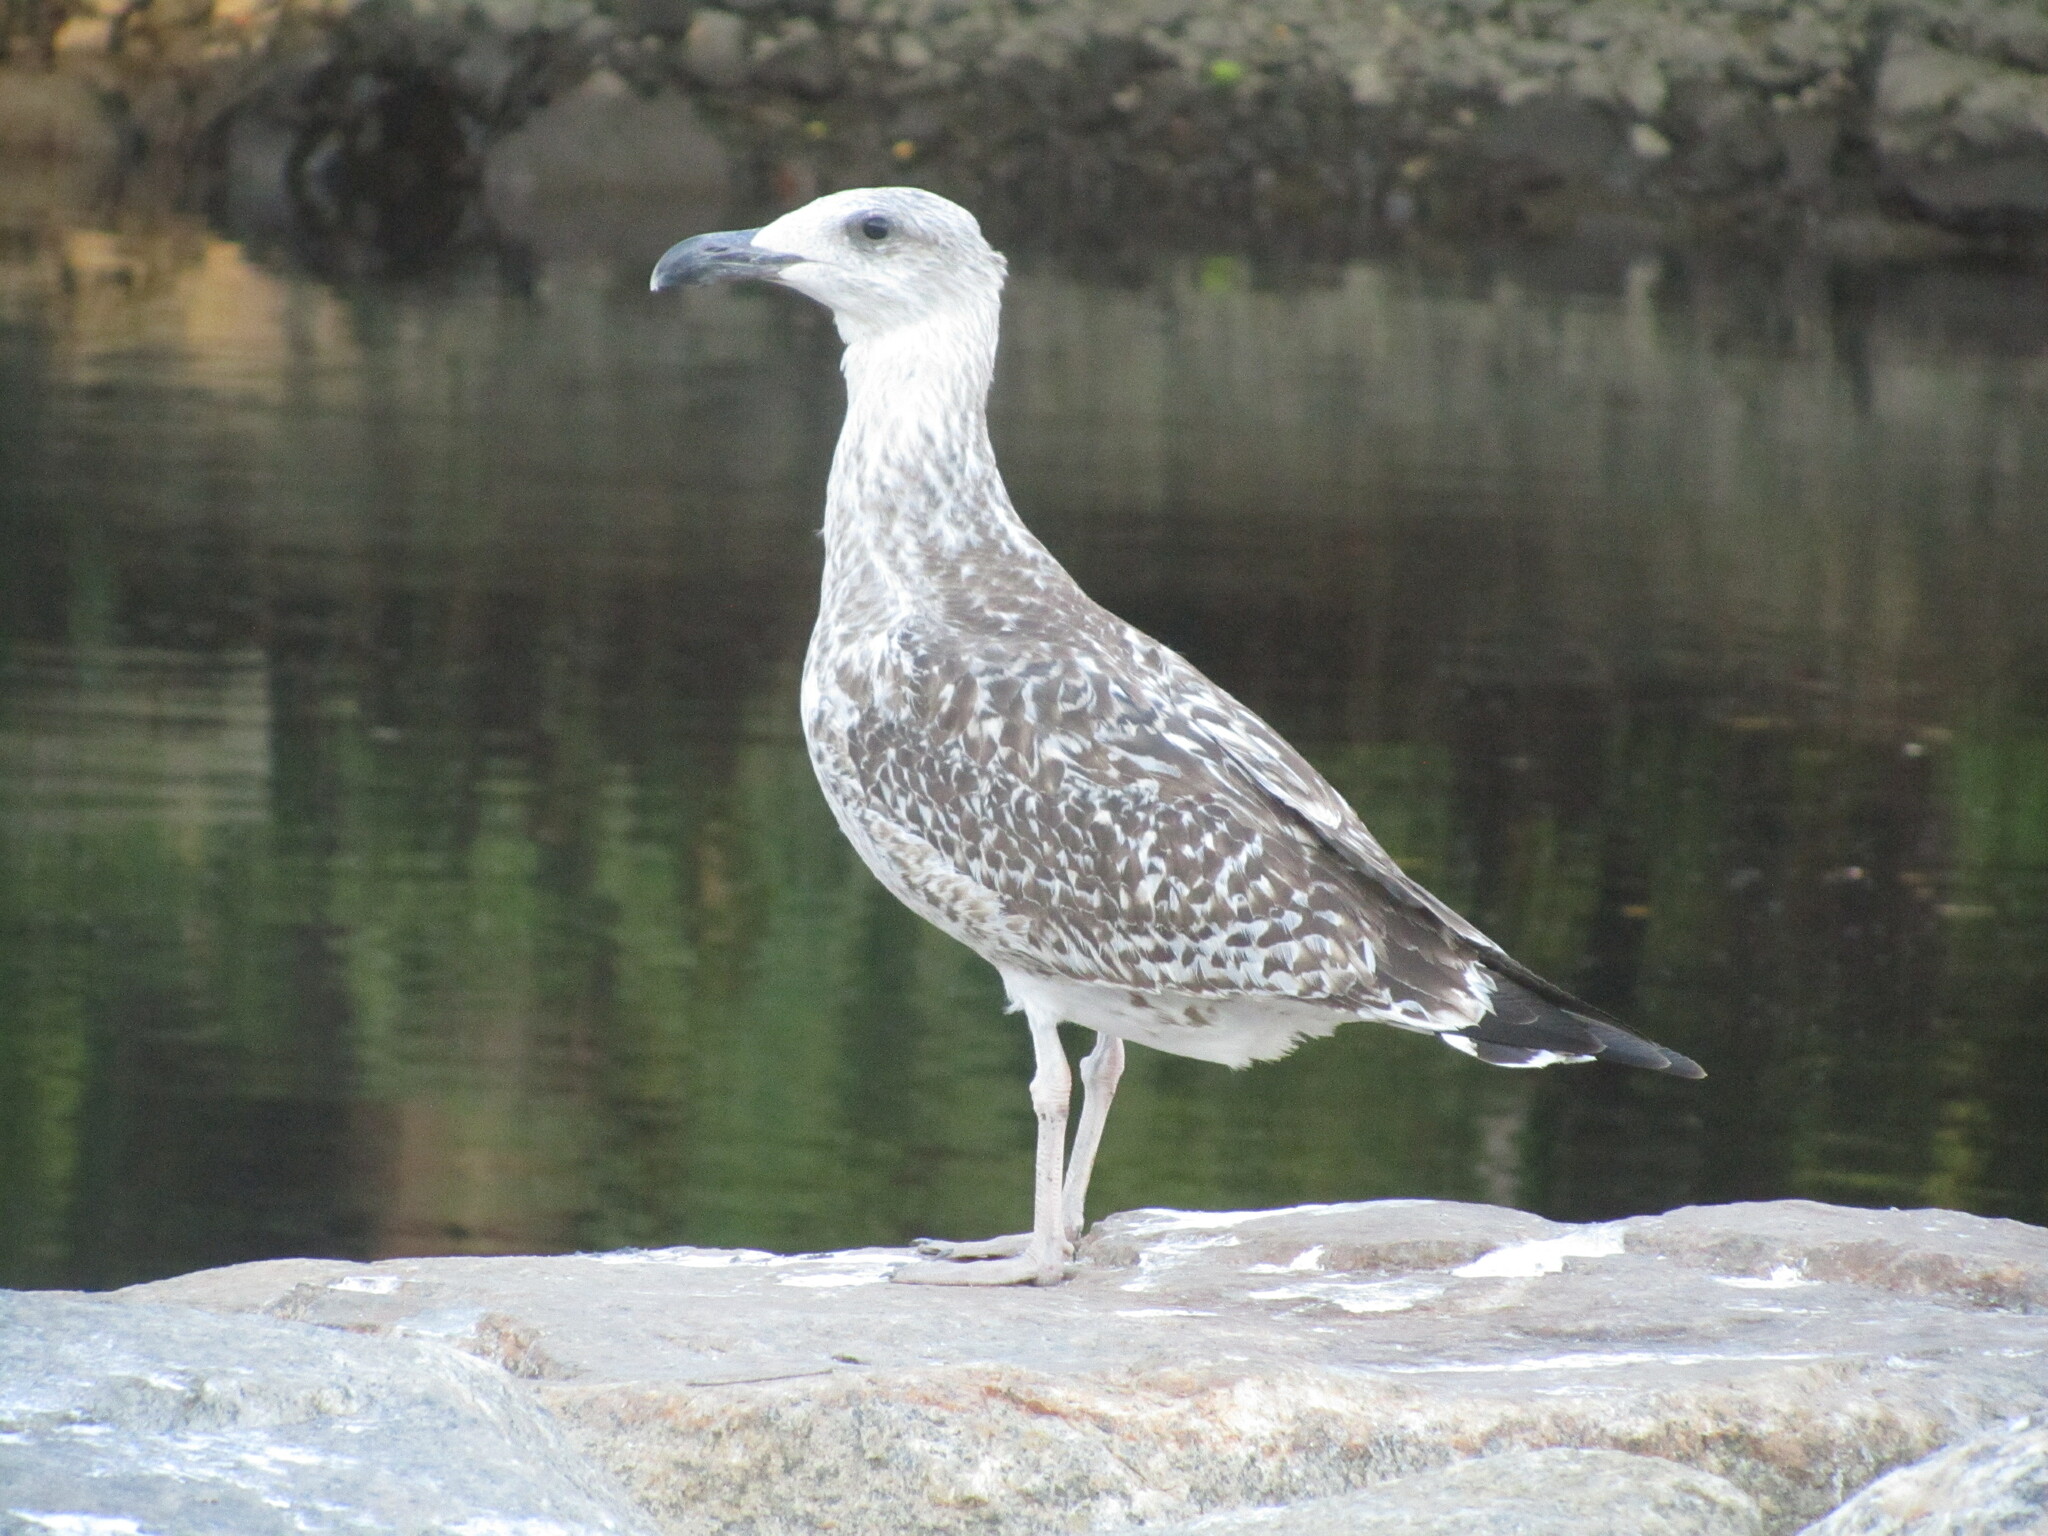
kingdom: Animalia
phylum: Chordata
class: Aves
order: Charadriiformes
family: Laridae
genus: Larus
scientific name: Larus marinus
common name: Great black-backed gull
